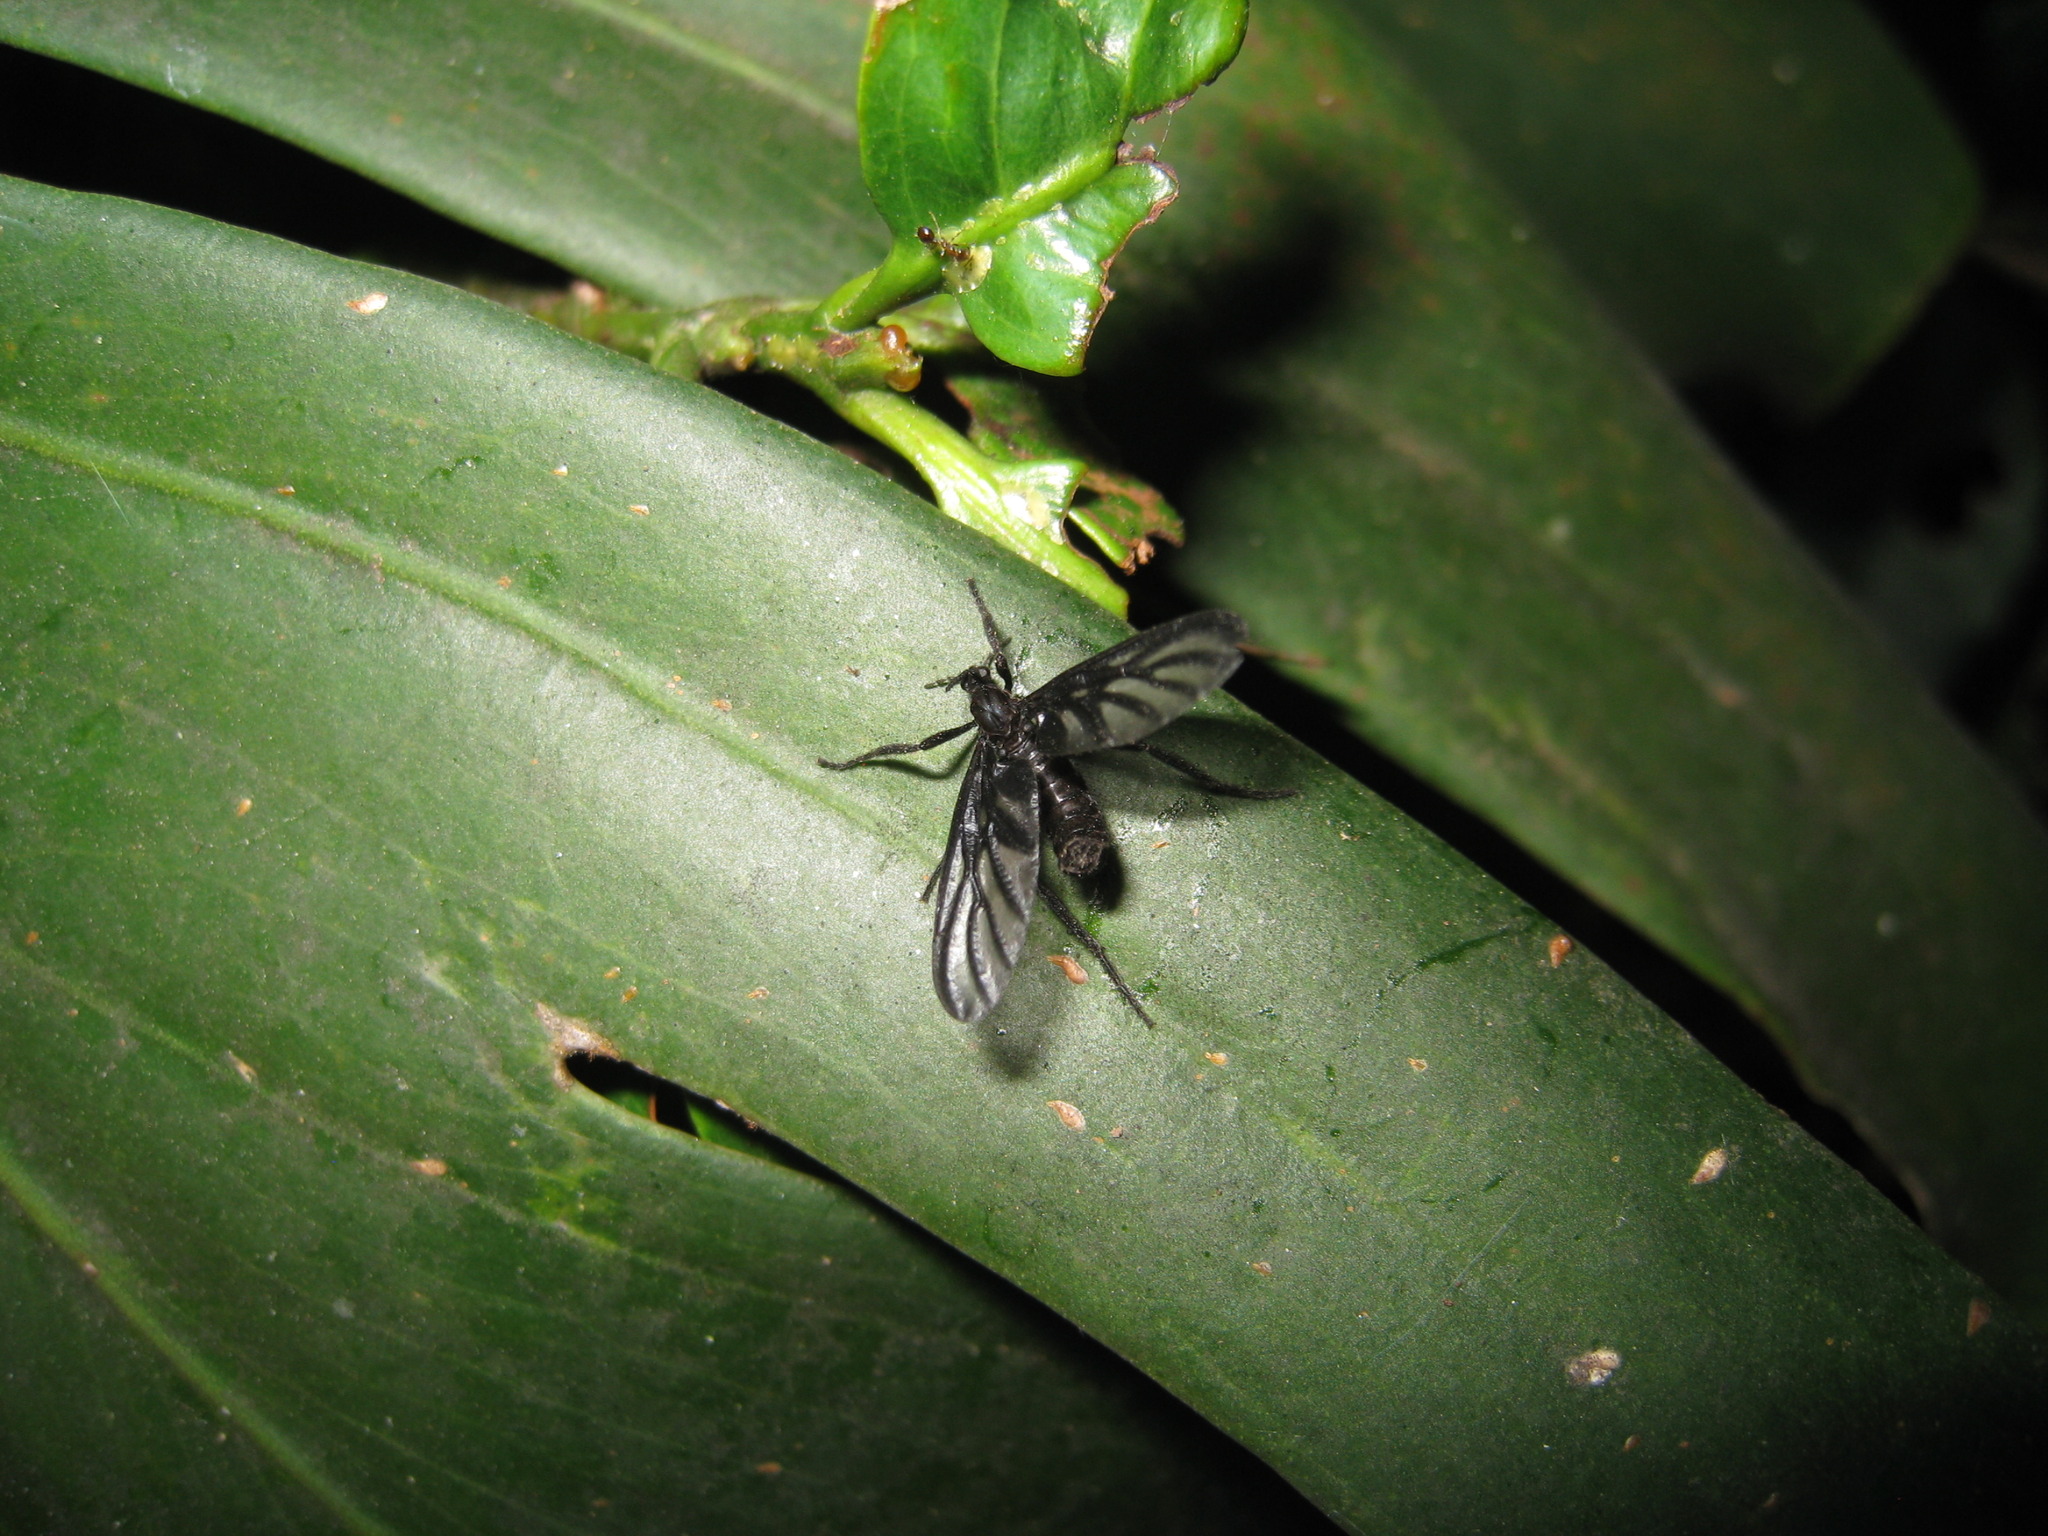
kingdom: Animalia
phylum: Arthropoda
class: Insecta
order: Diptera
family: Bibionidae
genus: Plecia
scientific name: Plecia plagiata
